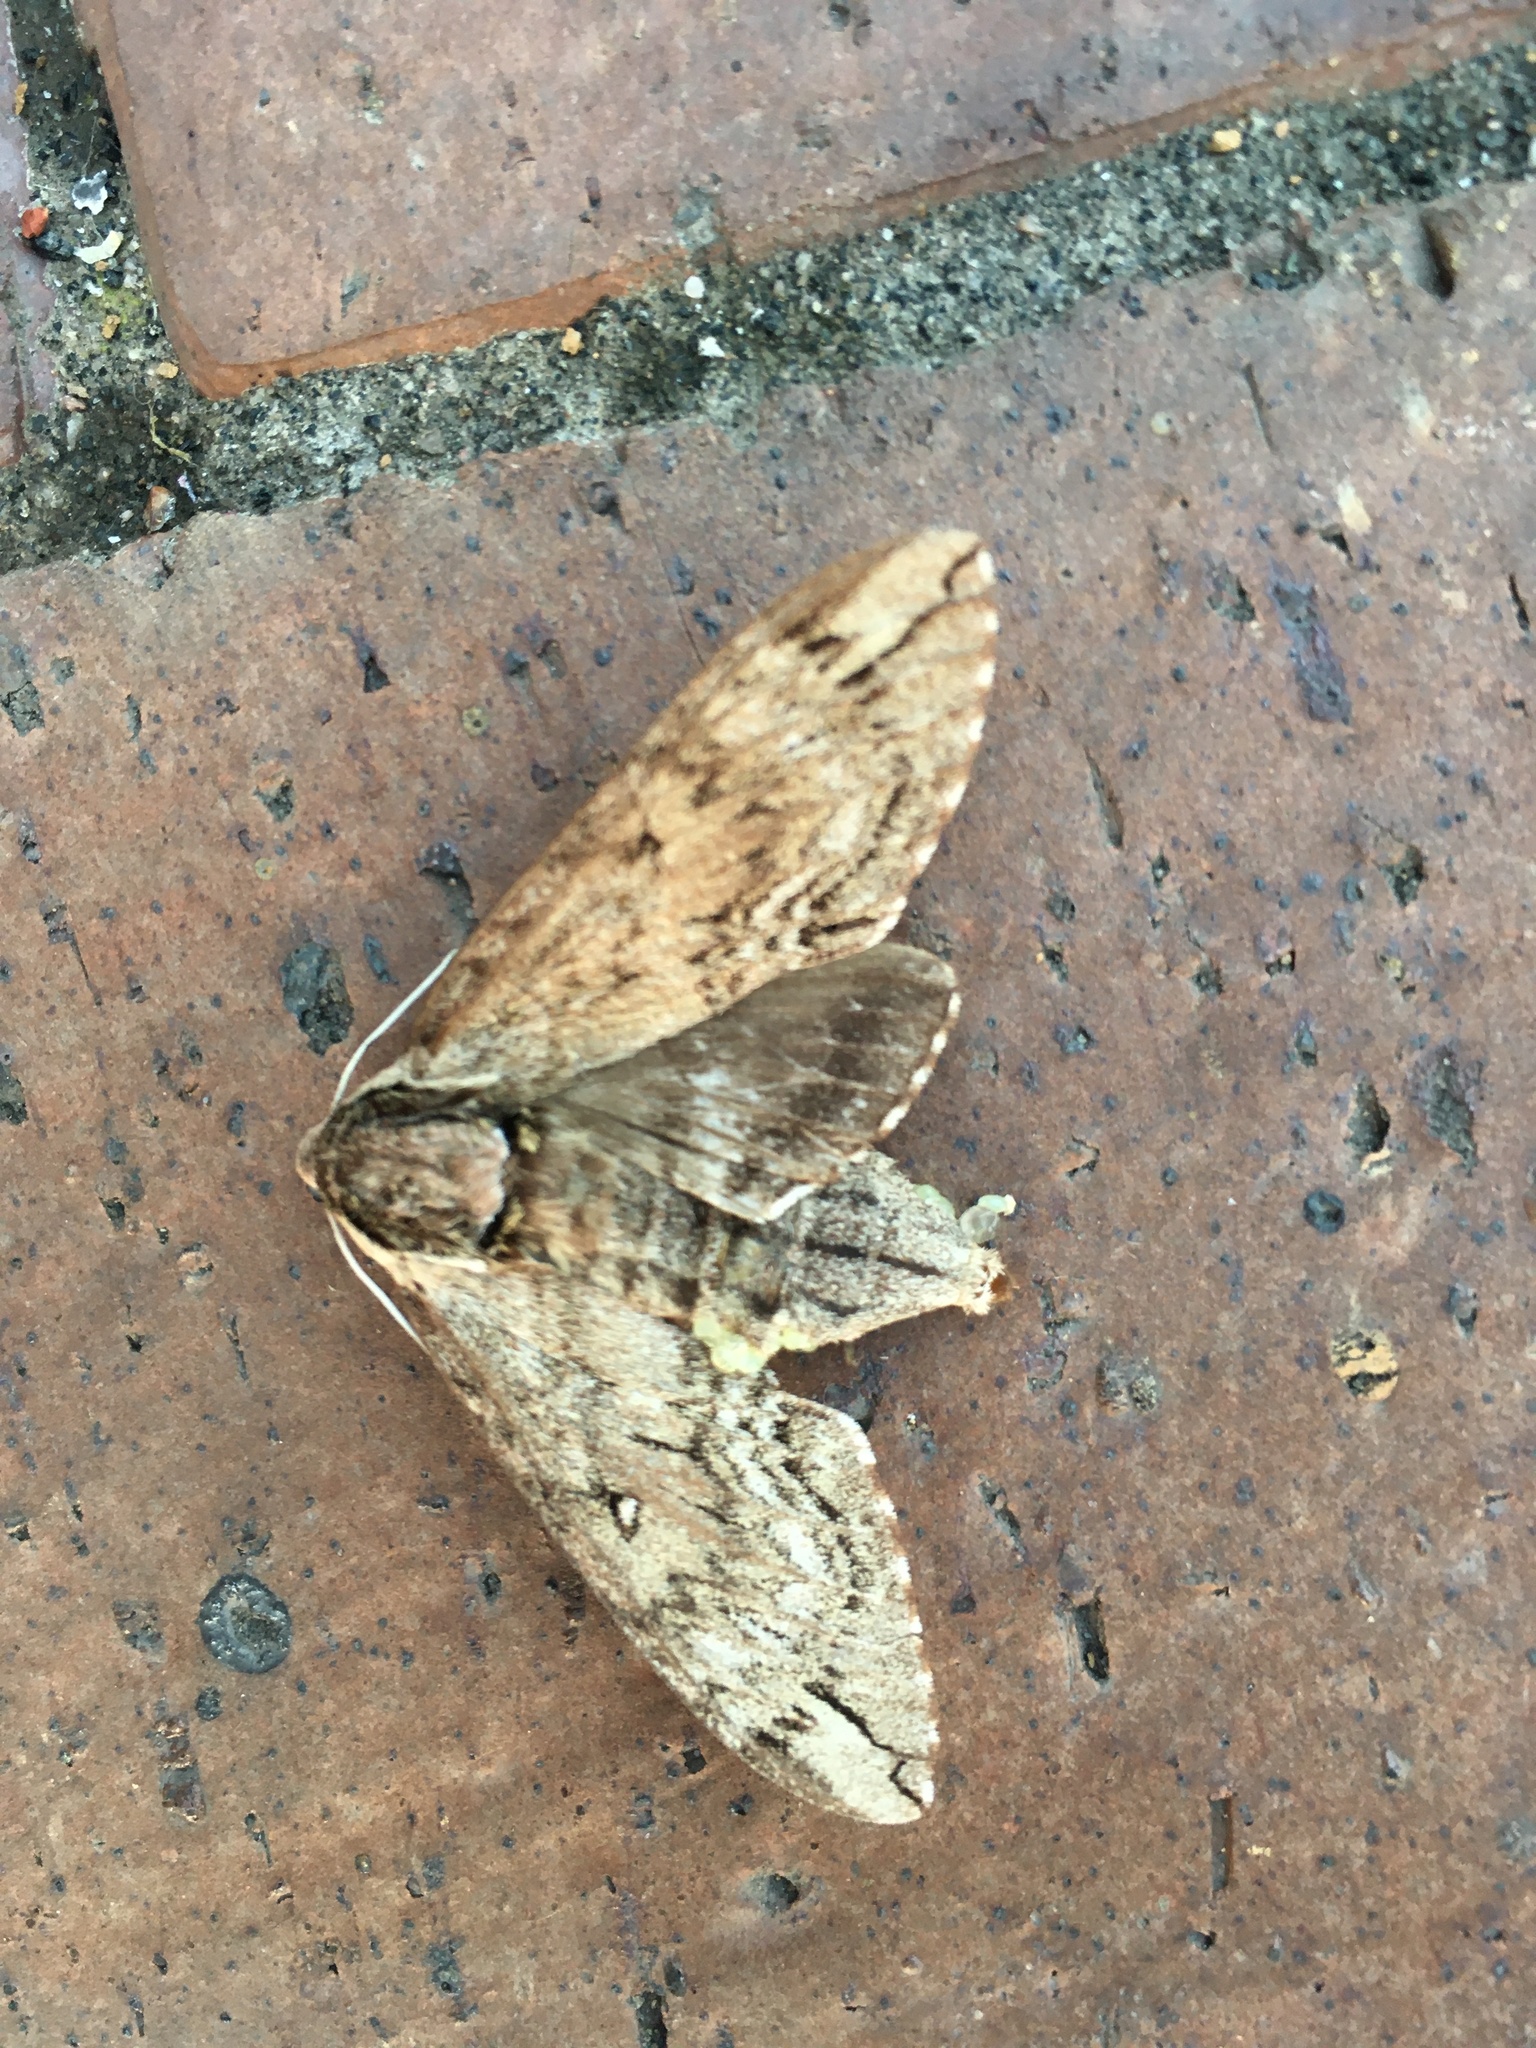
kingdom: Animalia
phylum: Arthropoda
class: Insecta
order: Lepidoptera
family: Sphingidae
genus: Ceratomia
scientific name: Ceratomia catalpae
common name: Catalpa hornworm
